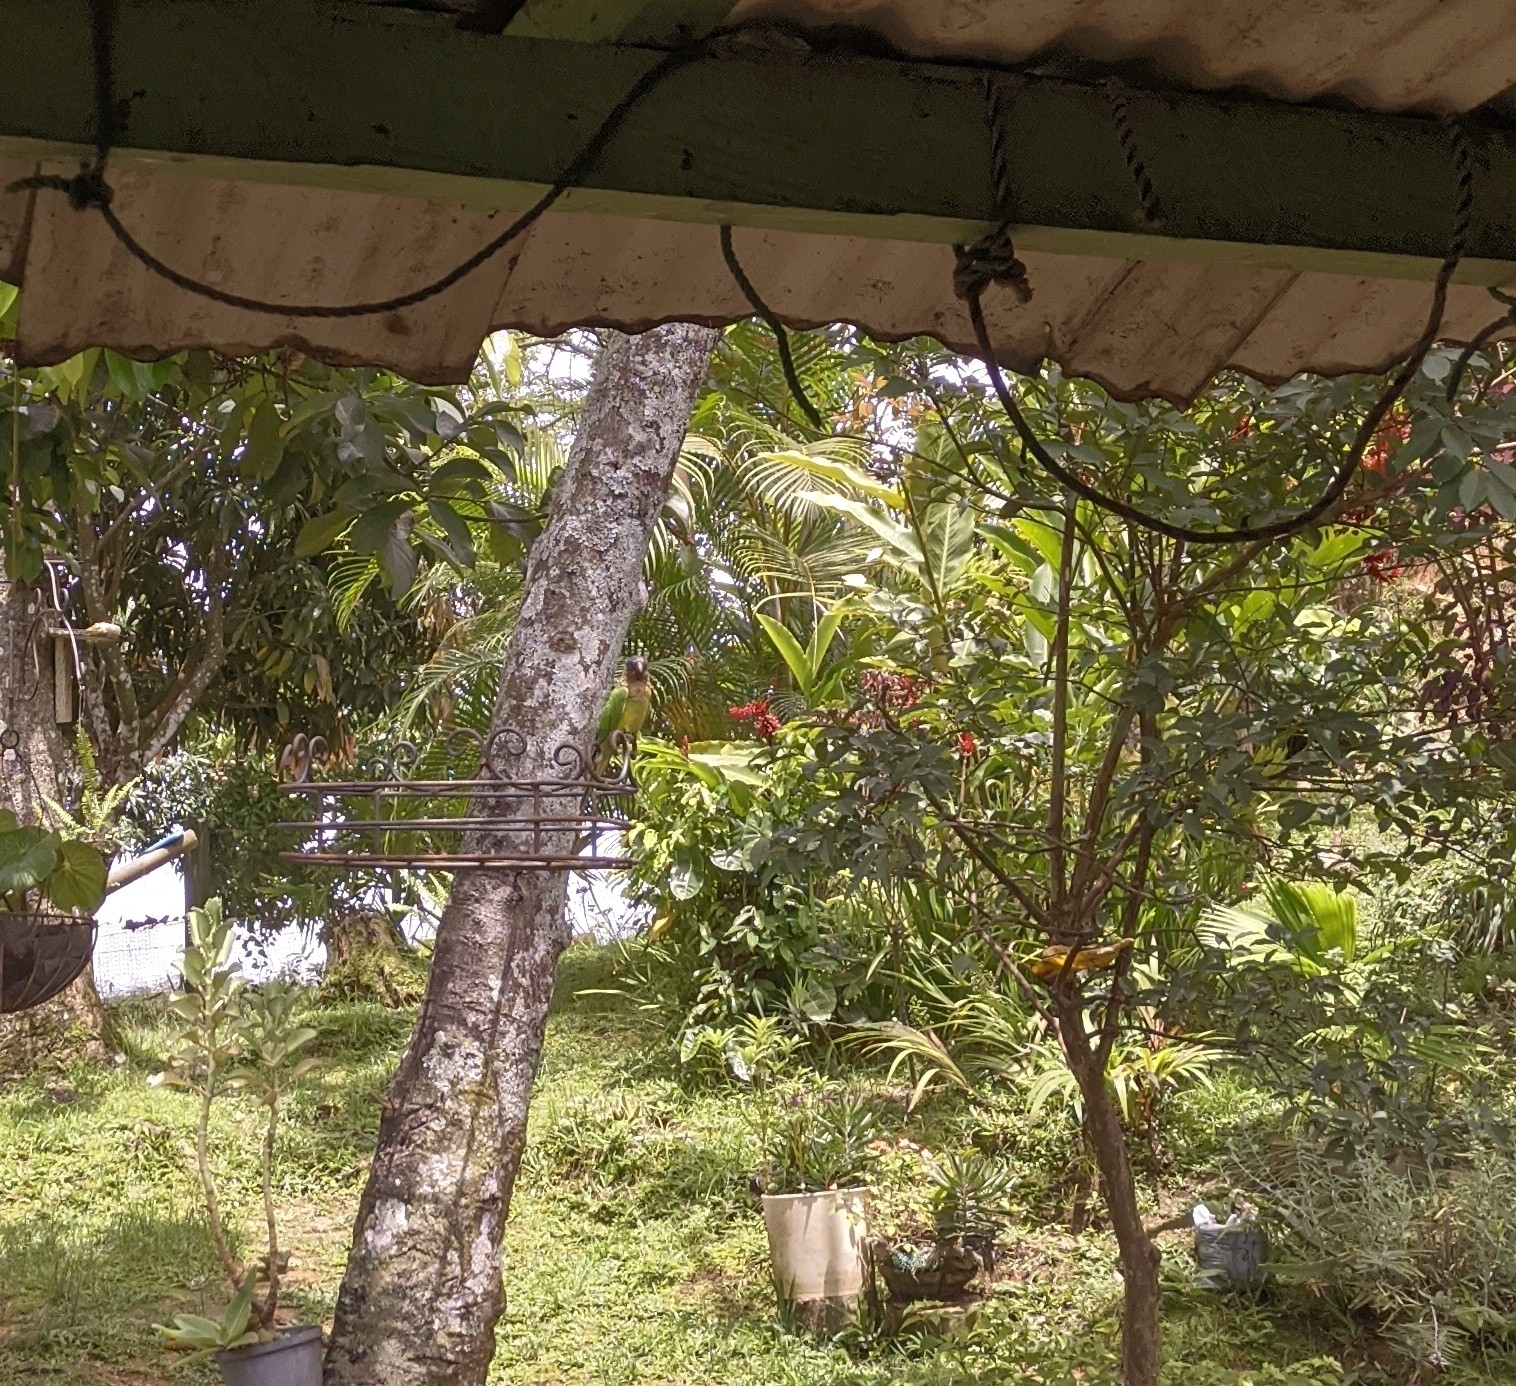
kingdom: Animalia
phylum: Chordata
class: Aves
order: Psittaciformes
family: Psittacidae
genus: Aratinga
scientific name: Aratinga pertinax
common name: Brown-throated parakeet
